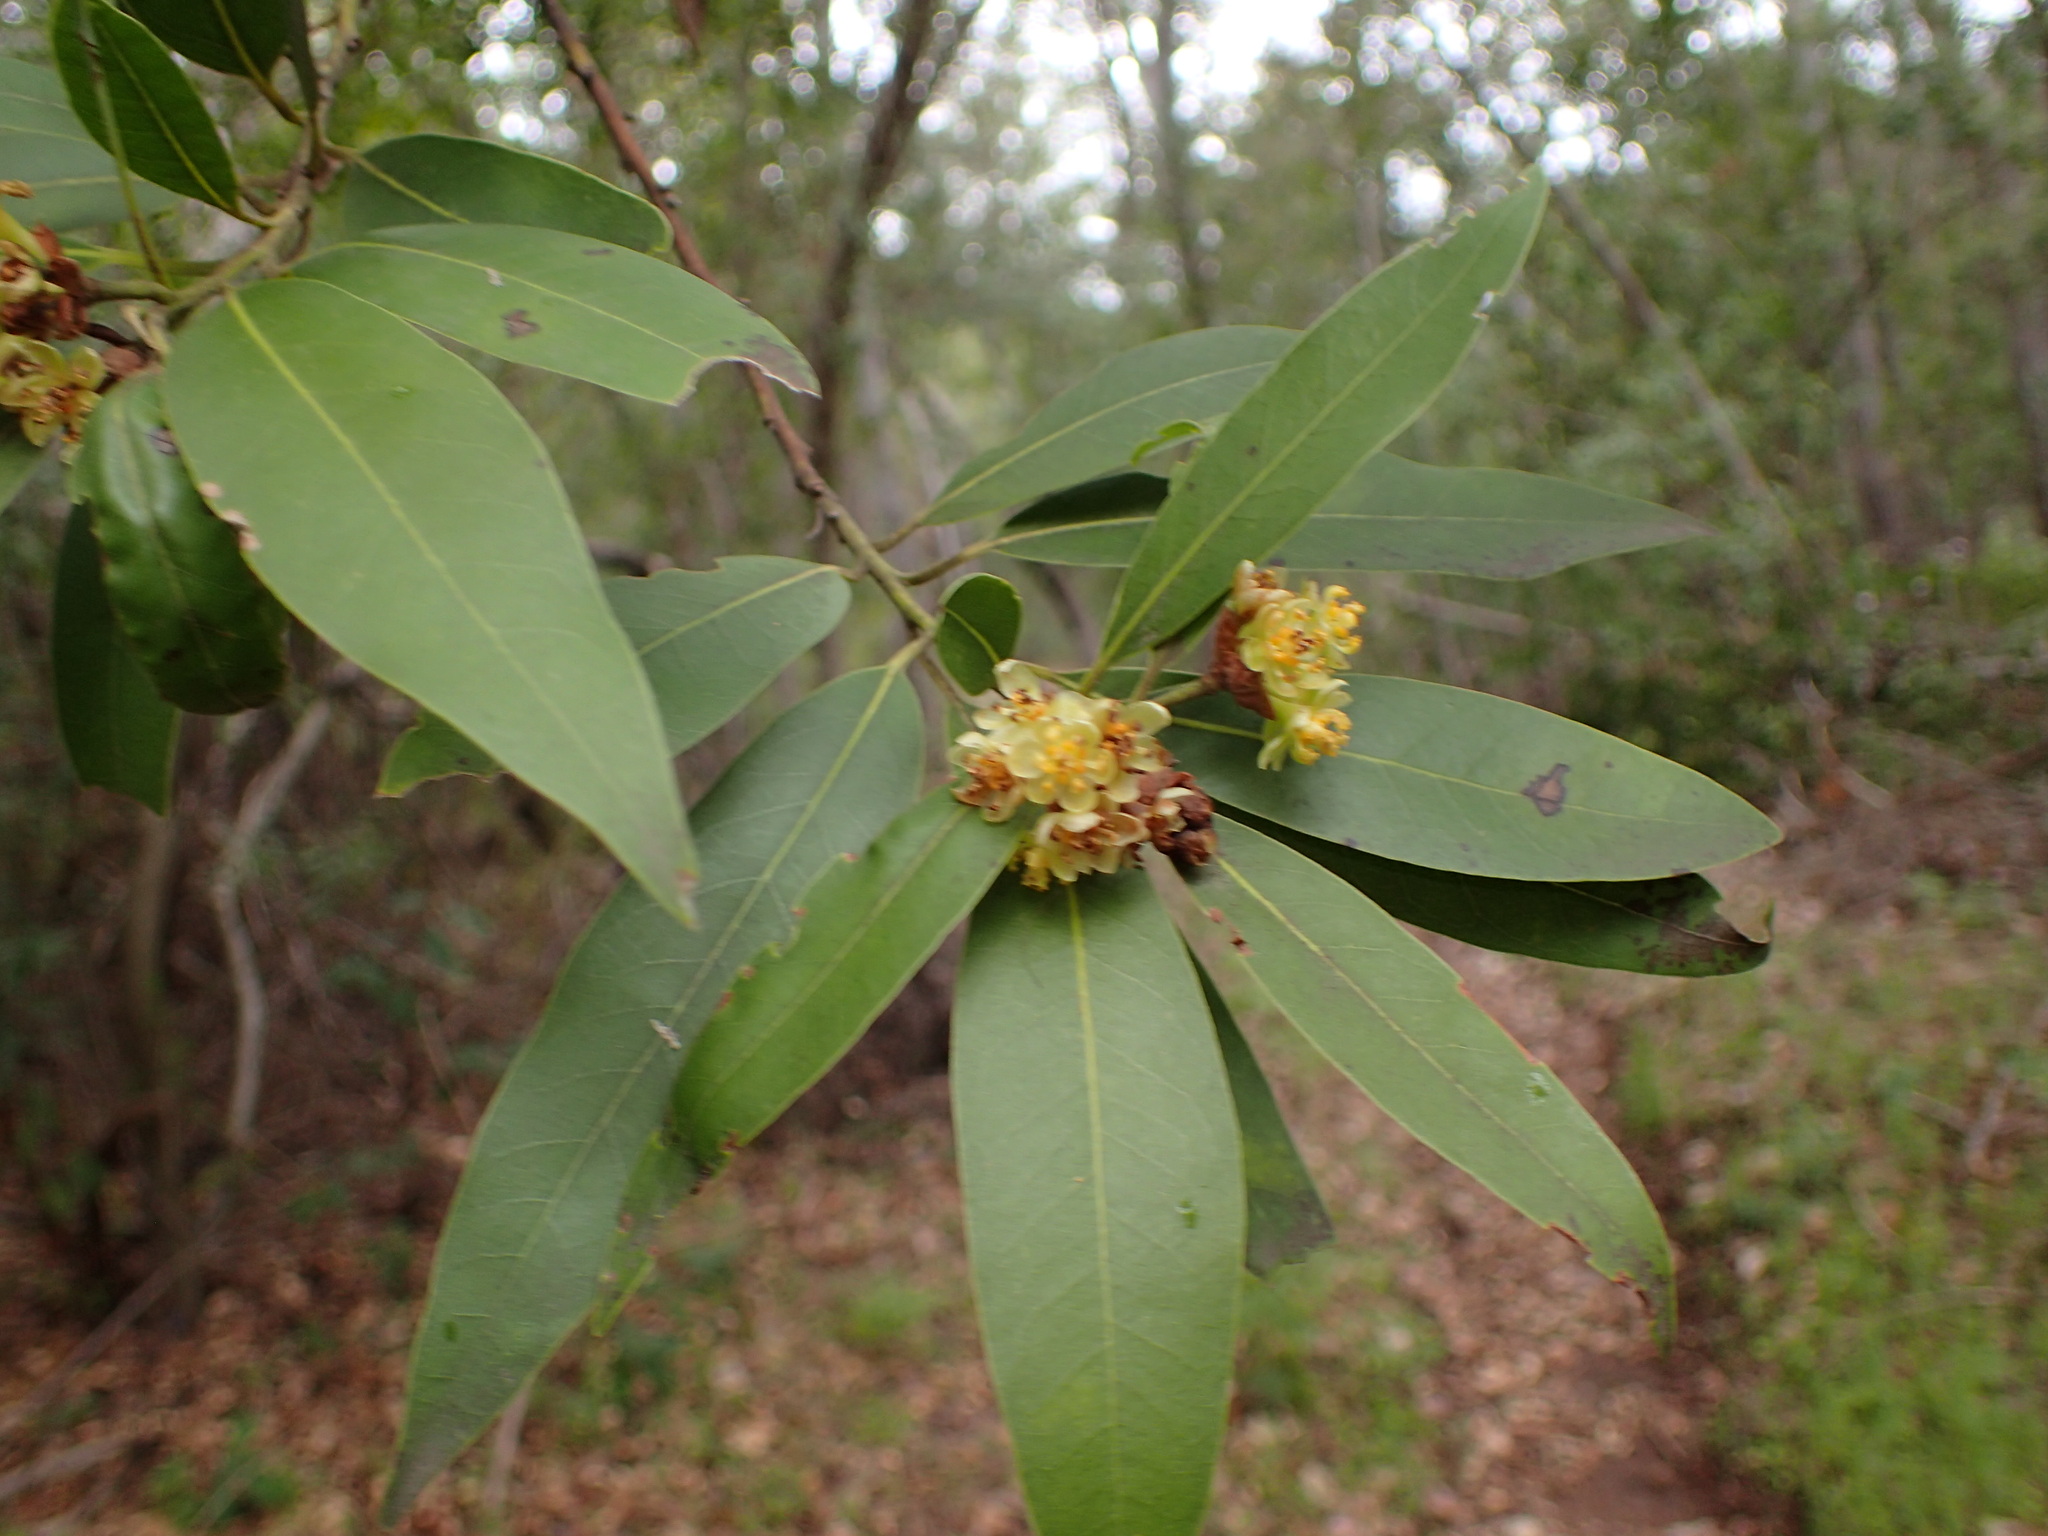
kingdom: Plantae
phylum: Tracheophyta
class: Magnoliopsida
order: Laurales
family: Lauraceae
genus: Umbellularia
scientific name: Umbellularia californica
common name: California bay
